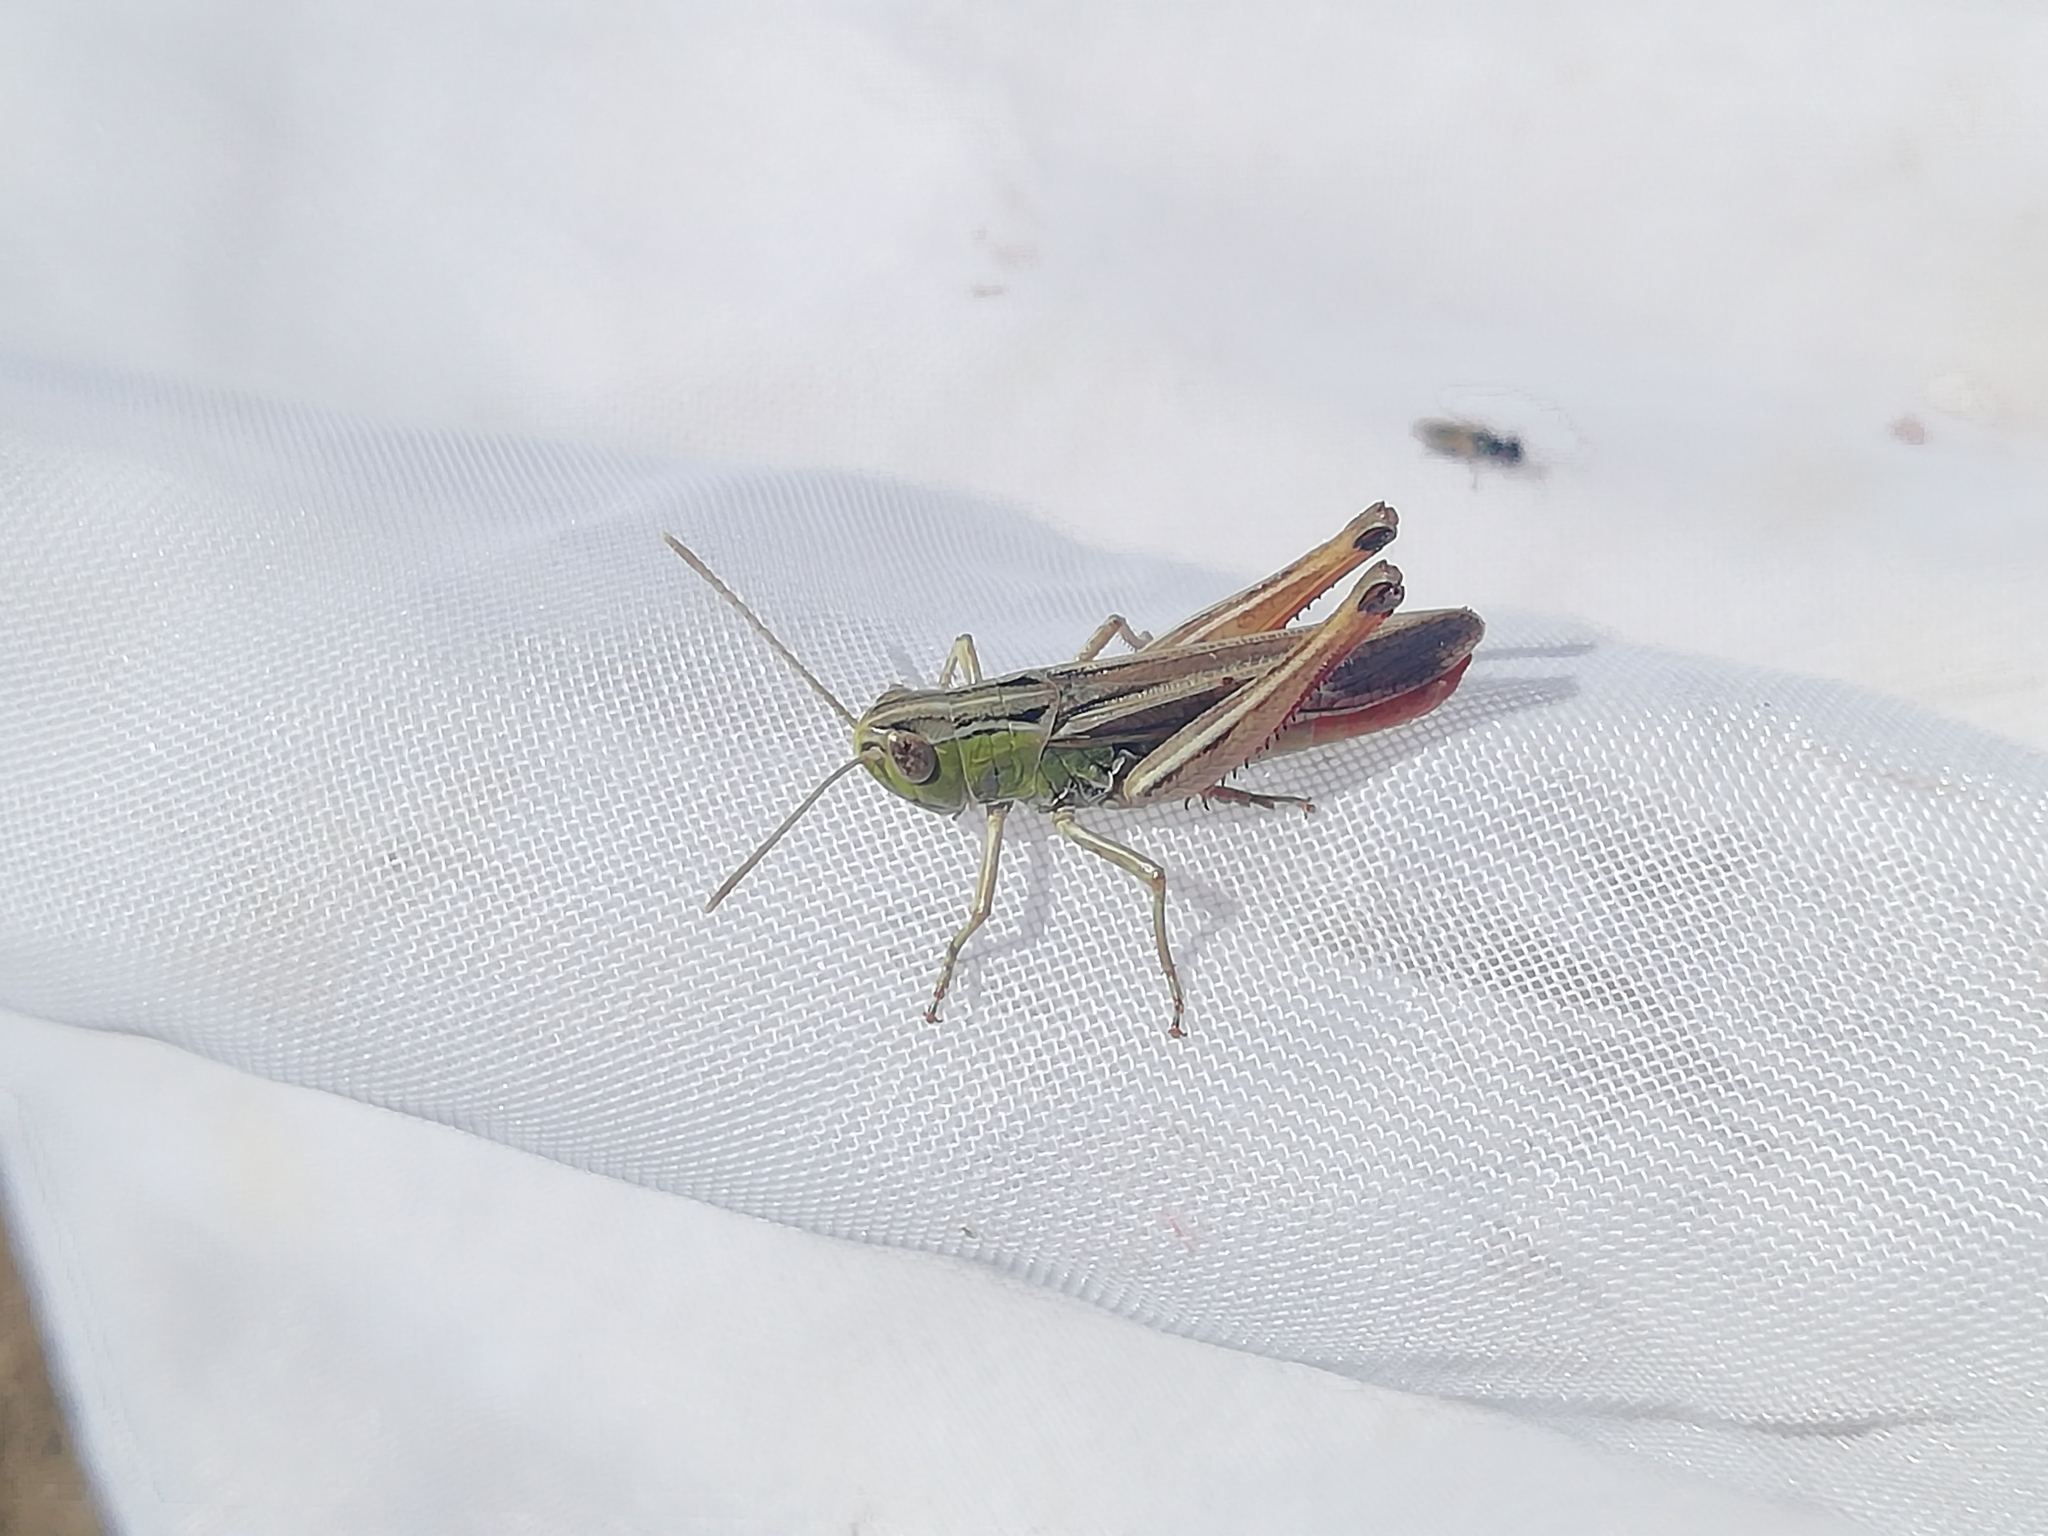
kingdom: Animalia
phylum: Arthropoda
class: Insecta
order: Orthoptera
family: Acrididae
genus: Stenobothrus
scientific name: Stenobothrus lineatus
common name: Stripe-winged grasshopper
